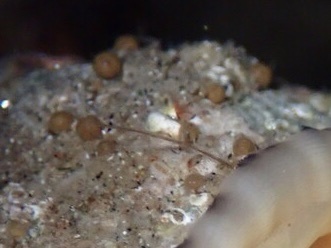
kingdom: Protozoa
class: Filosia
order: Aconchulinida
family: Gromiidae
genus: Gromia
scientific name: Gromia oviformis
